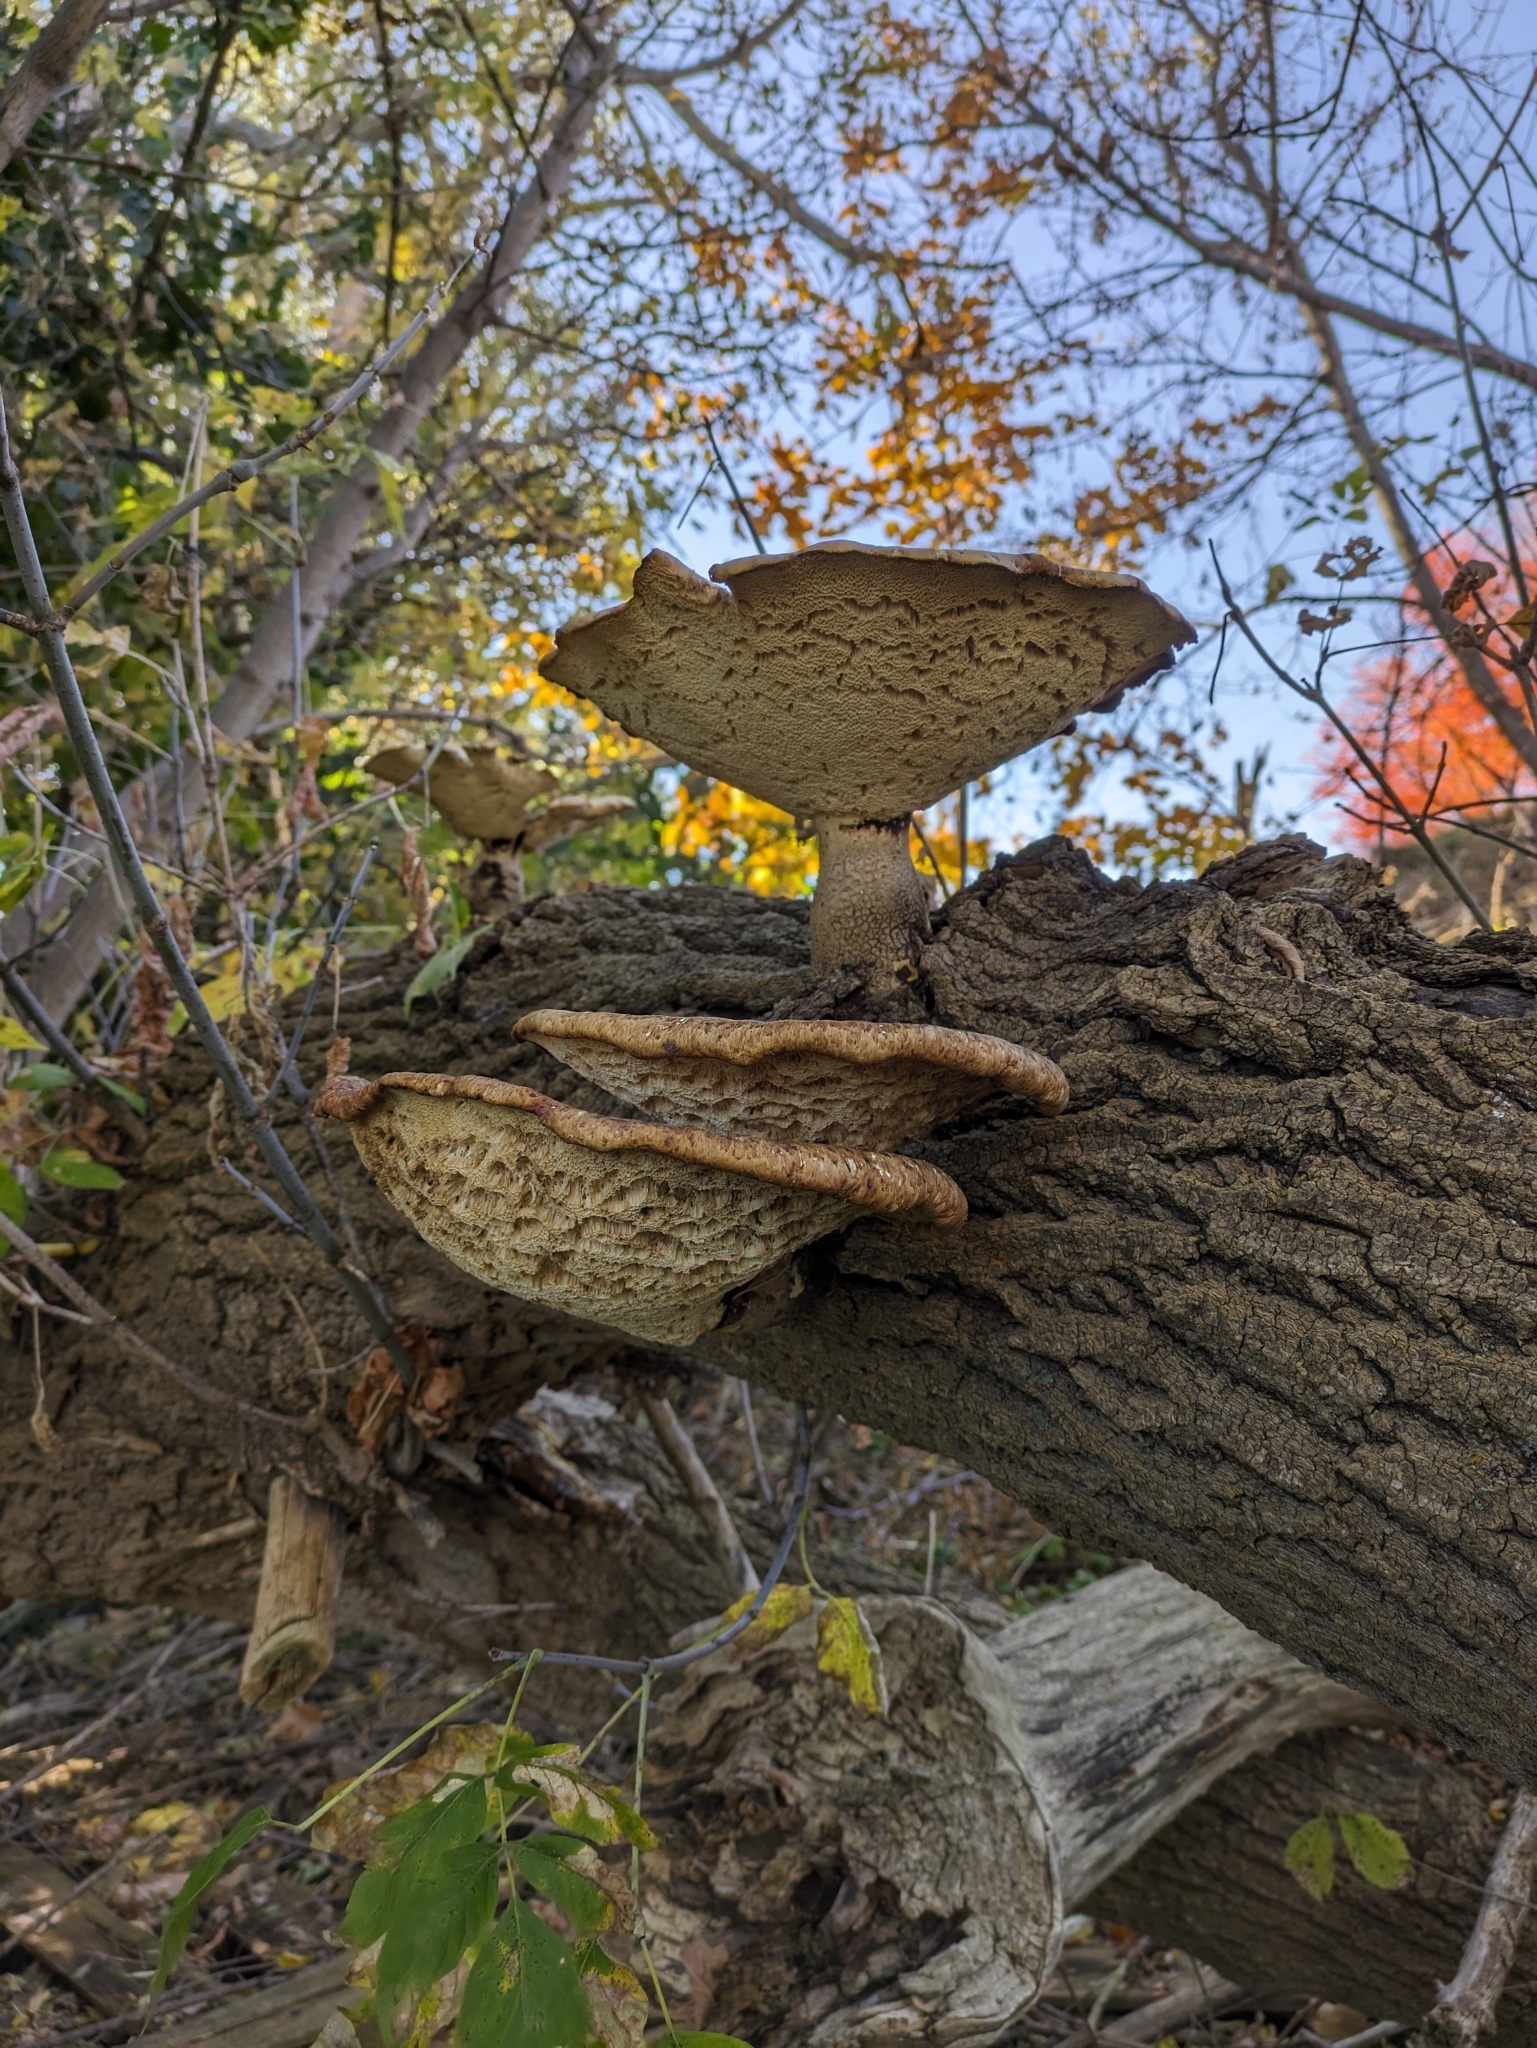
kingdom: Fungi
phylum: Basidiomycota
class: Agaricomycetes
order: Polyporales
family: Polyporaceae
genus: Cerioporus
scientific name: Cerioporus squamosus
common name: Dryad's saddle
